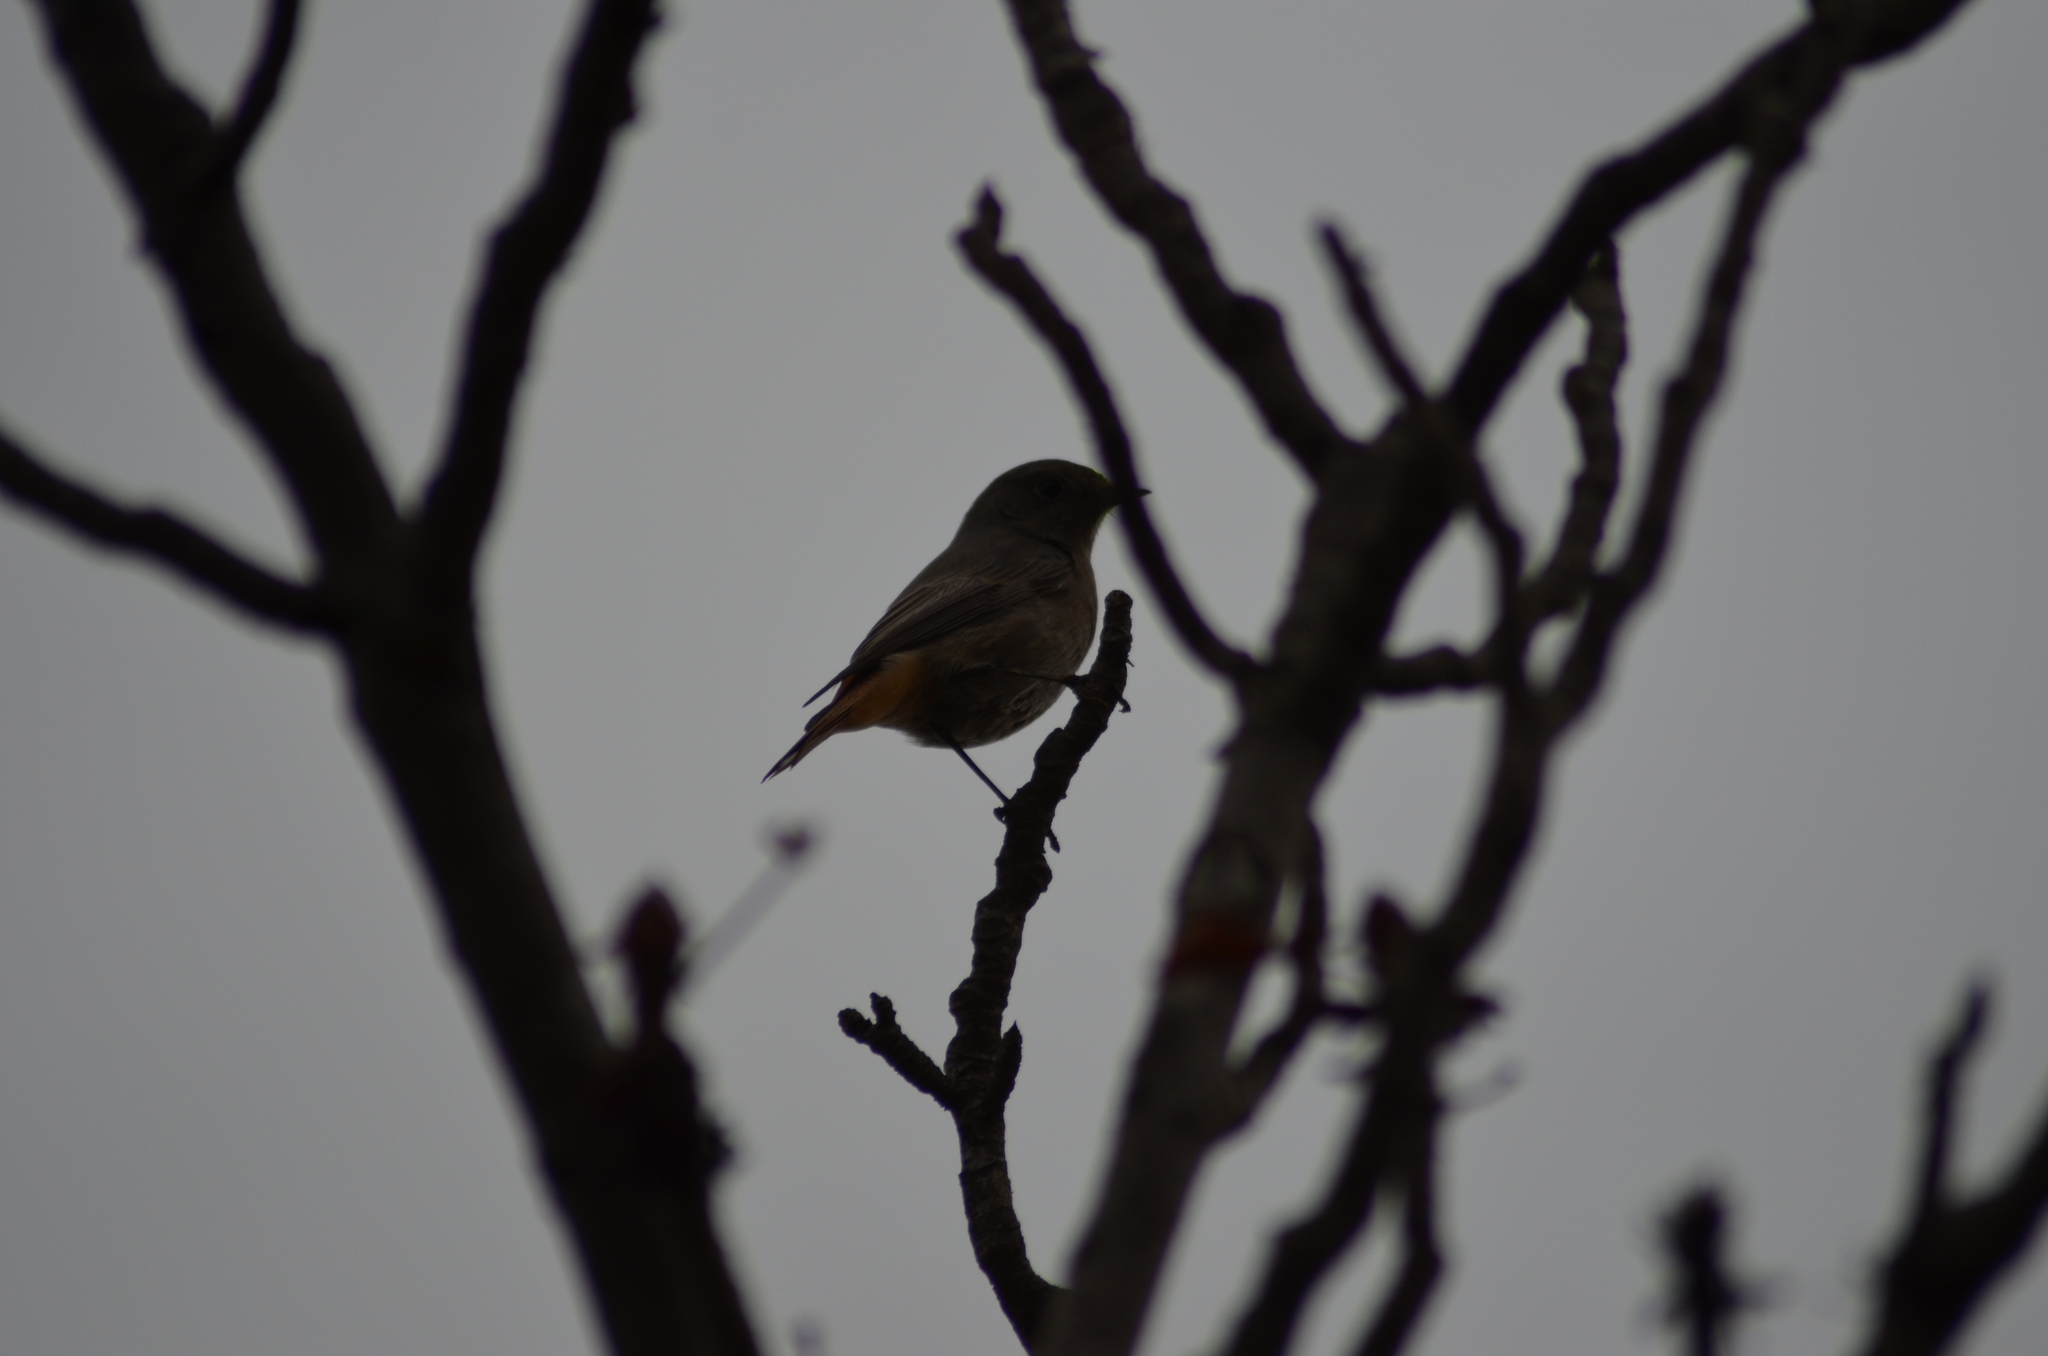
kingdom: Animalia
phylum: Chordata
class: Aves
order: Passeriformes
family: Muscicapidae
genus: Phoenicurus
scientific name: Phoenicurus ochruros
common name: Black redstart
